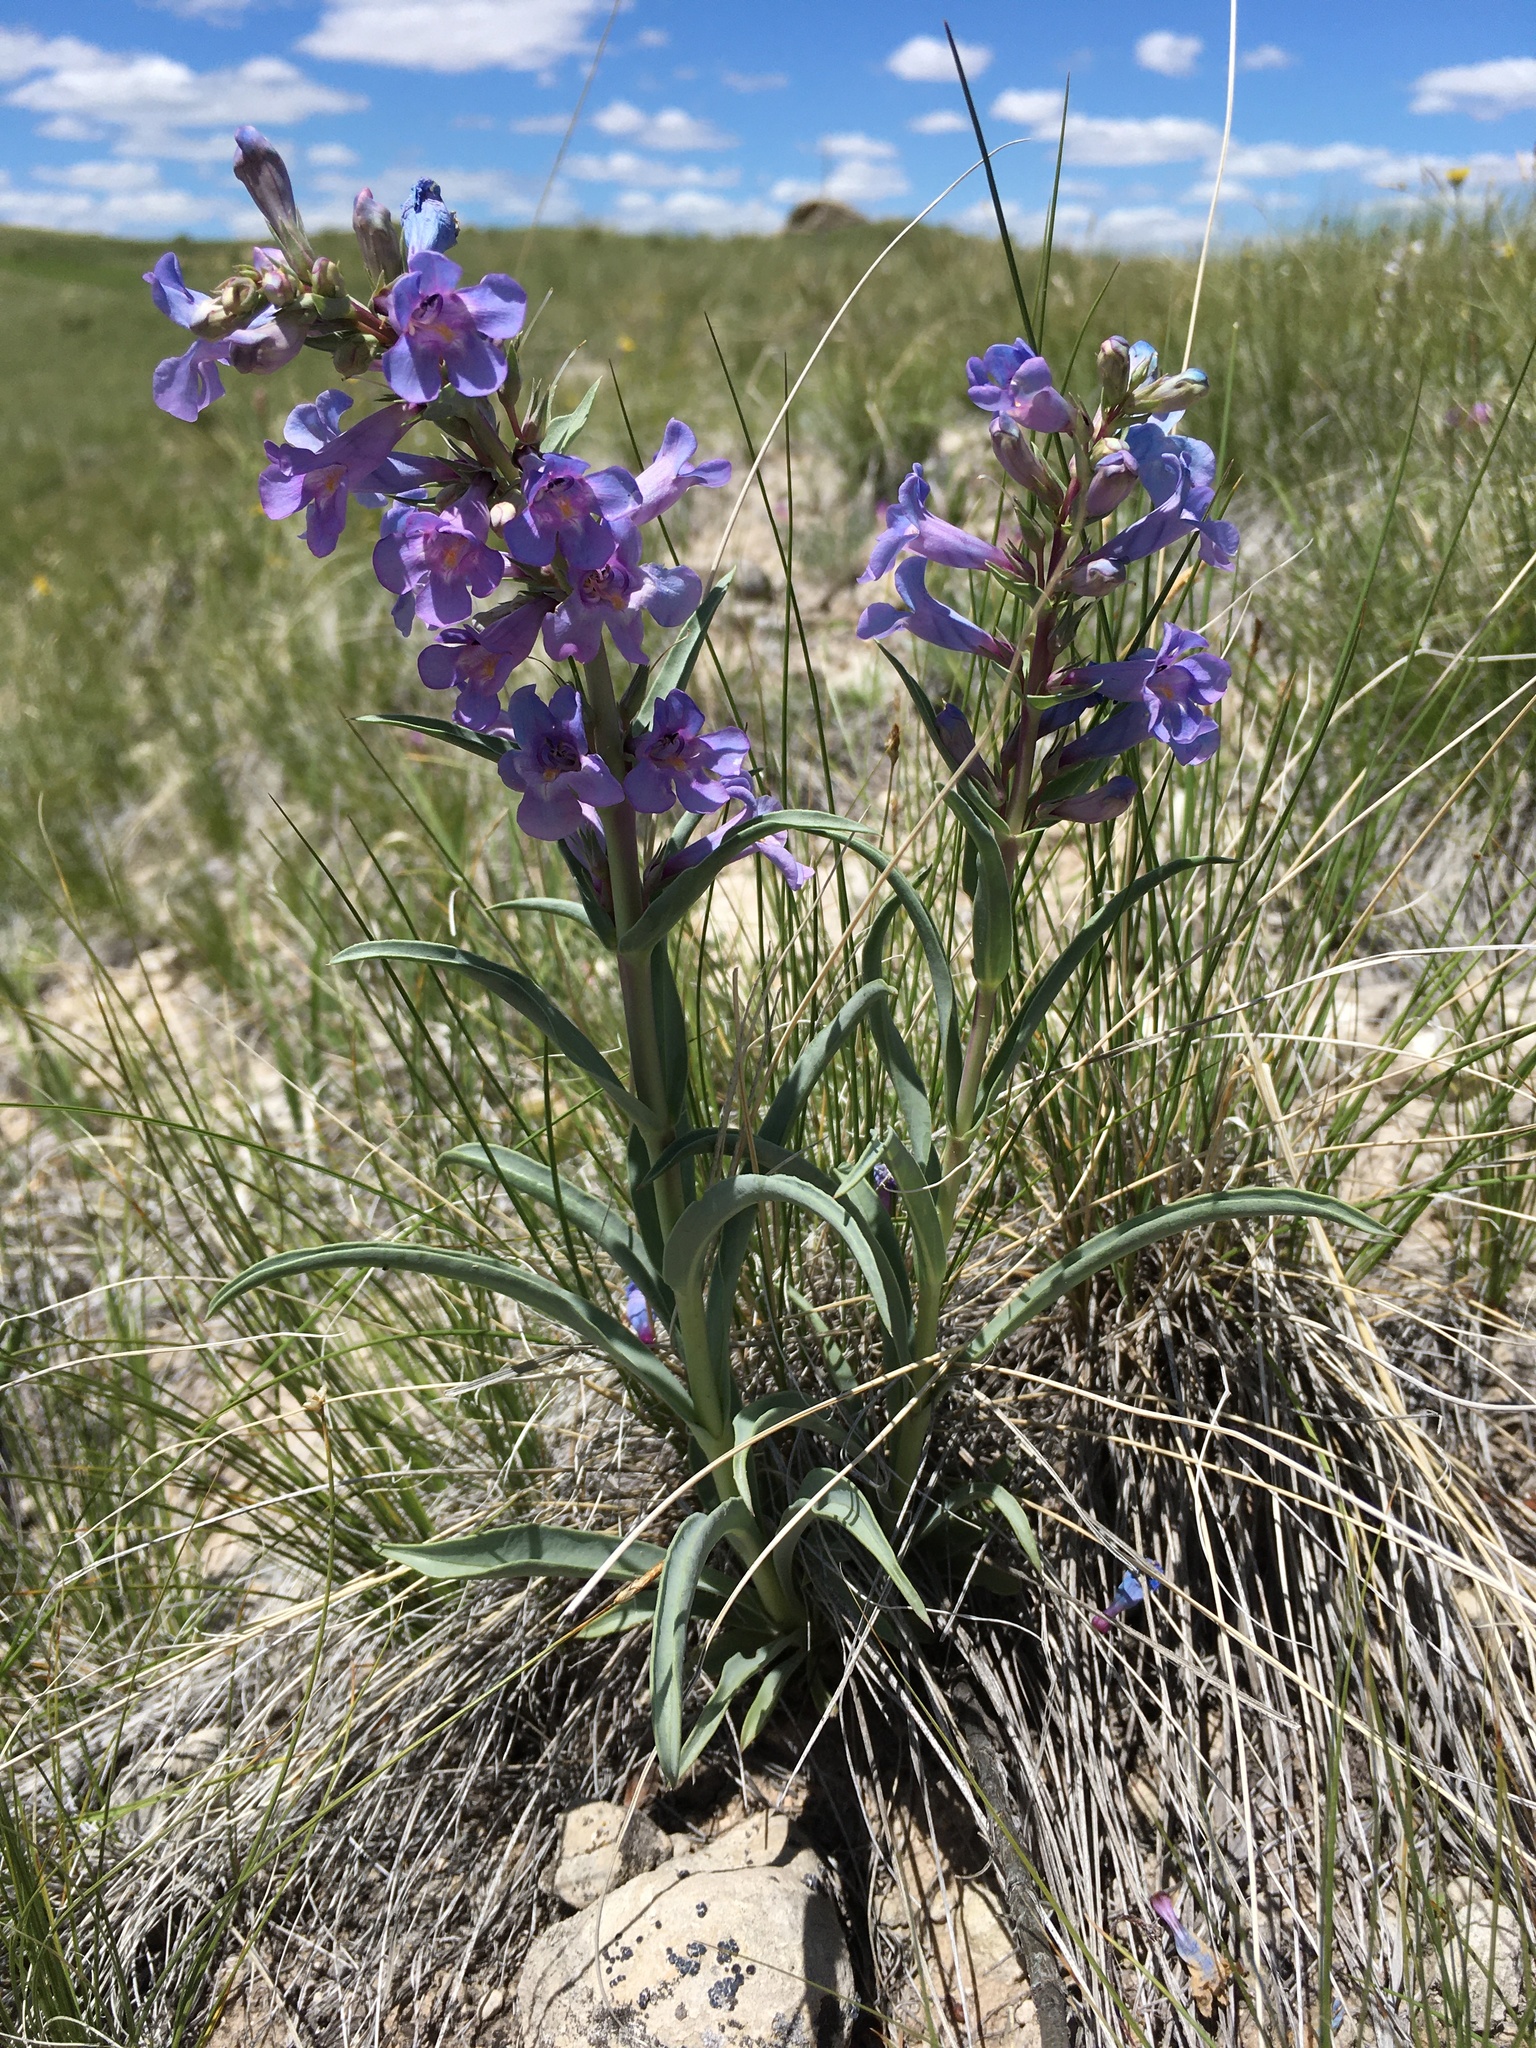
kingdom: Plantae
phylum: Tracheophyta
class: Magnoliopsida
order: Lamiales
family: Plantaginaceae
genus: Penstemon
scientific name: Penstemon angustifolius
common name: Narrow beardtongue
